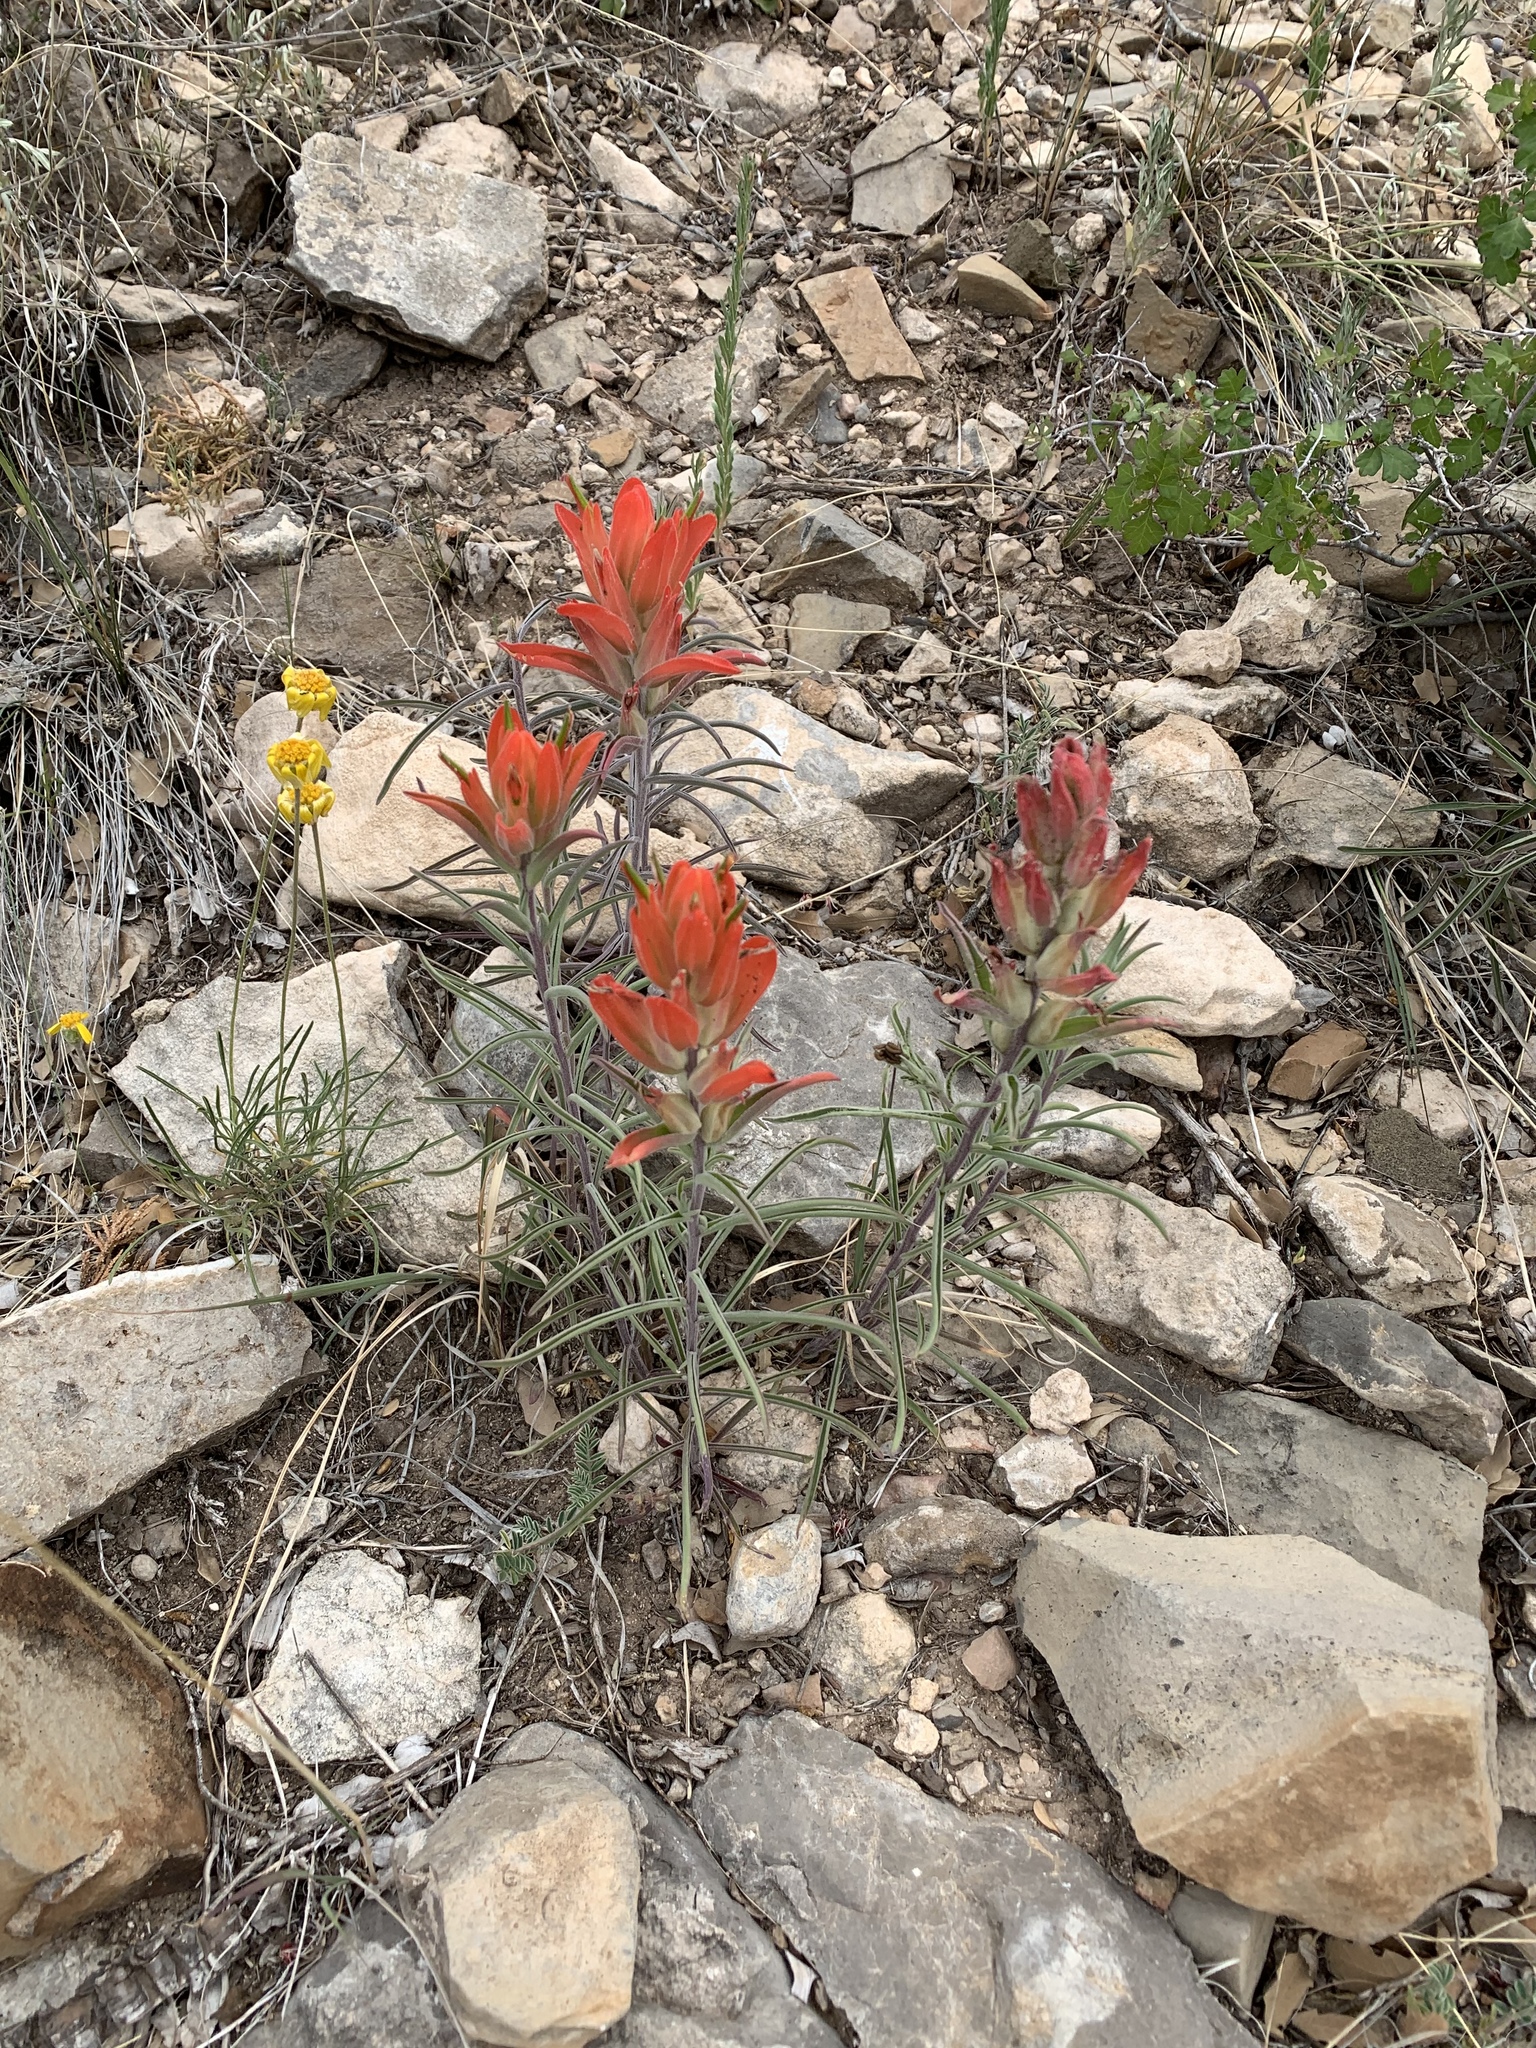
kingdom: Plantae
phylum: Tracheophyta
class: Magnoliopsida
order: Lamiales
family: Orobanchaceae
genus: Castilleja
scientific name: Castilleja integra
